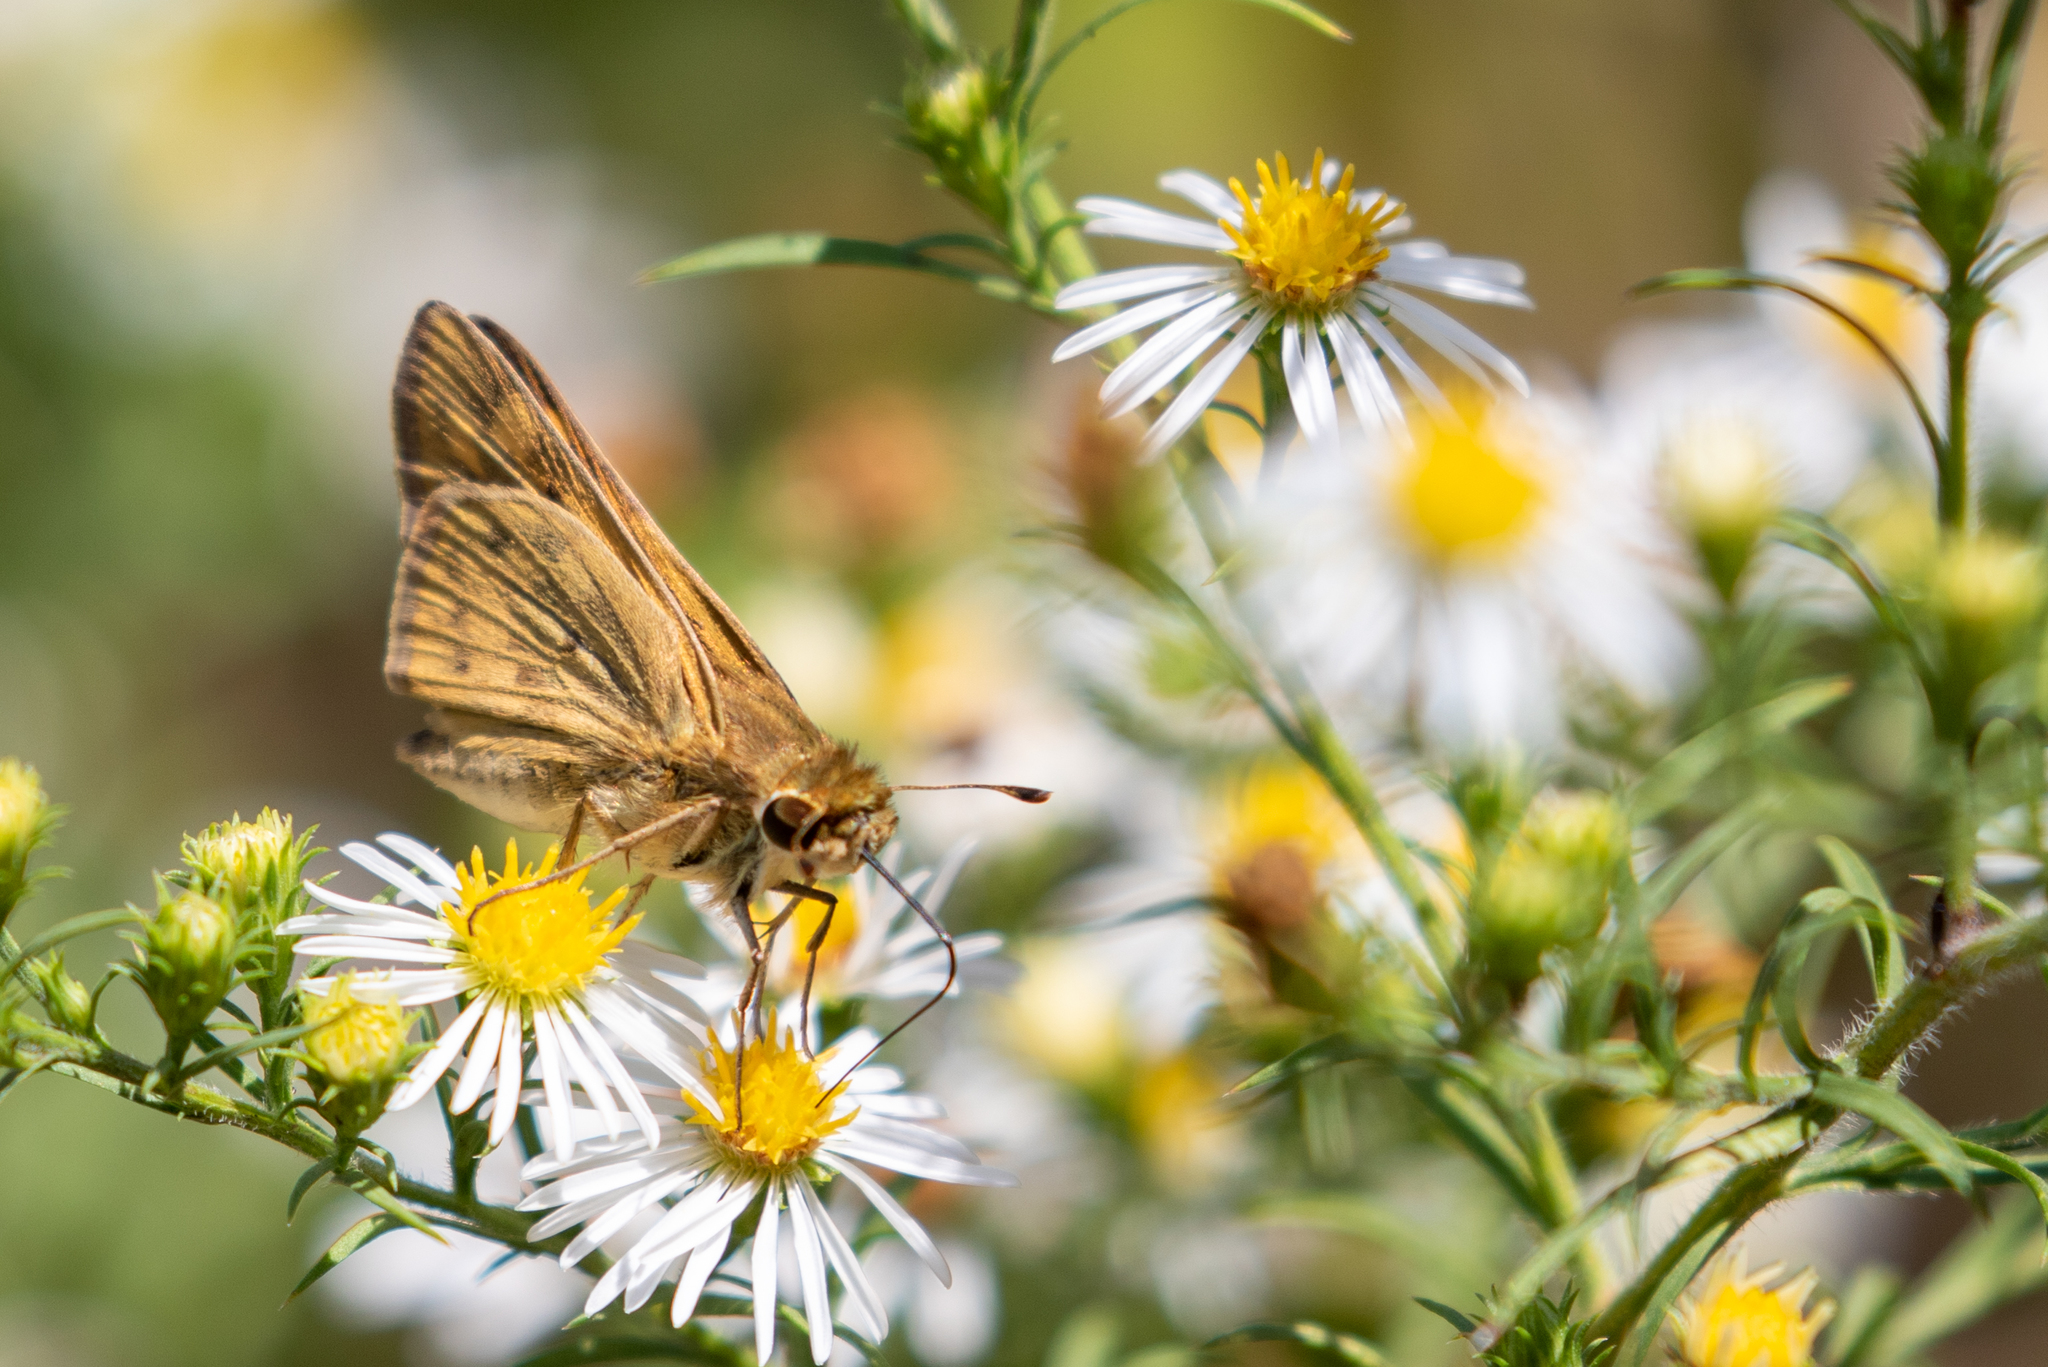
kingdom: Animalia
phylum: Arthropoda
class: Insecta
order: Lepidoptera
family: Hesperiidae
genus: Hylephila
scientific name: Hylephila phyleus
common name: Fiery skipper
